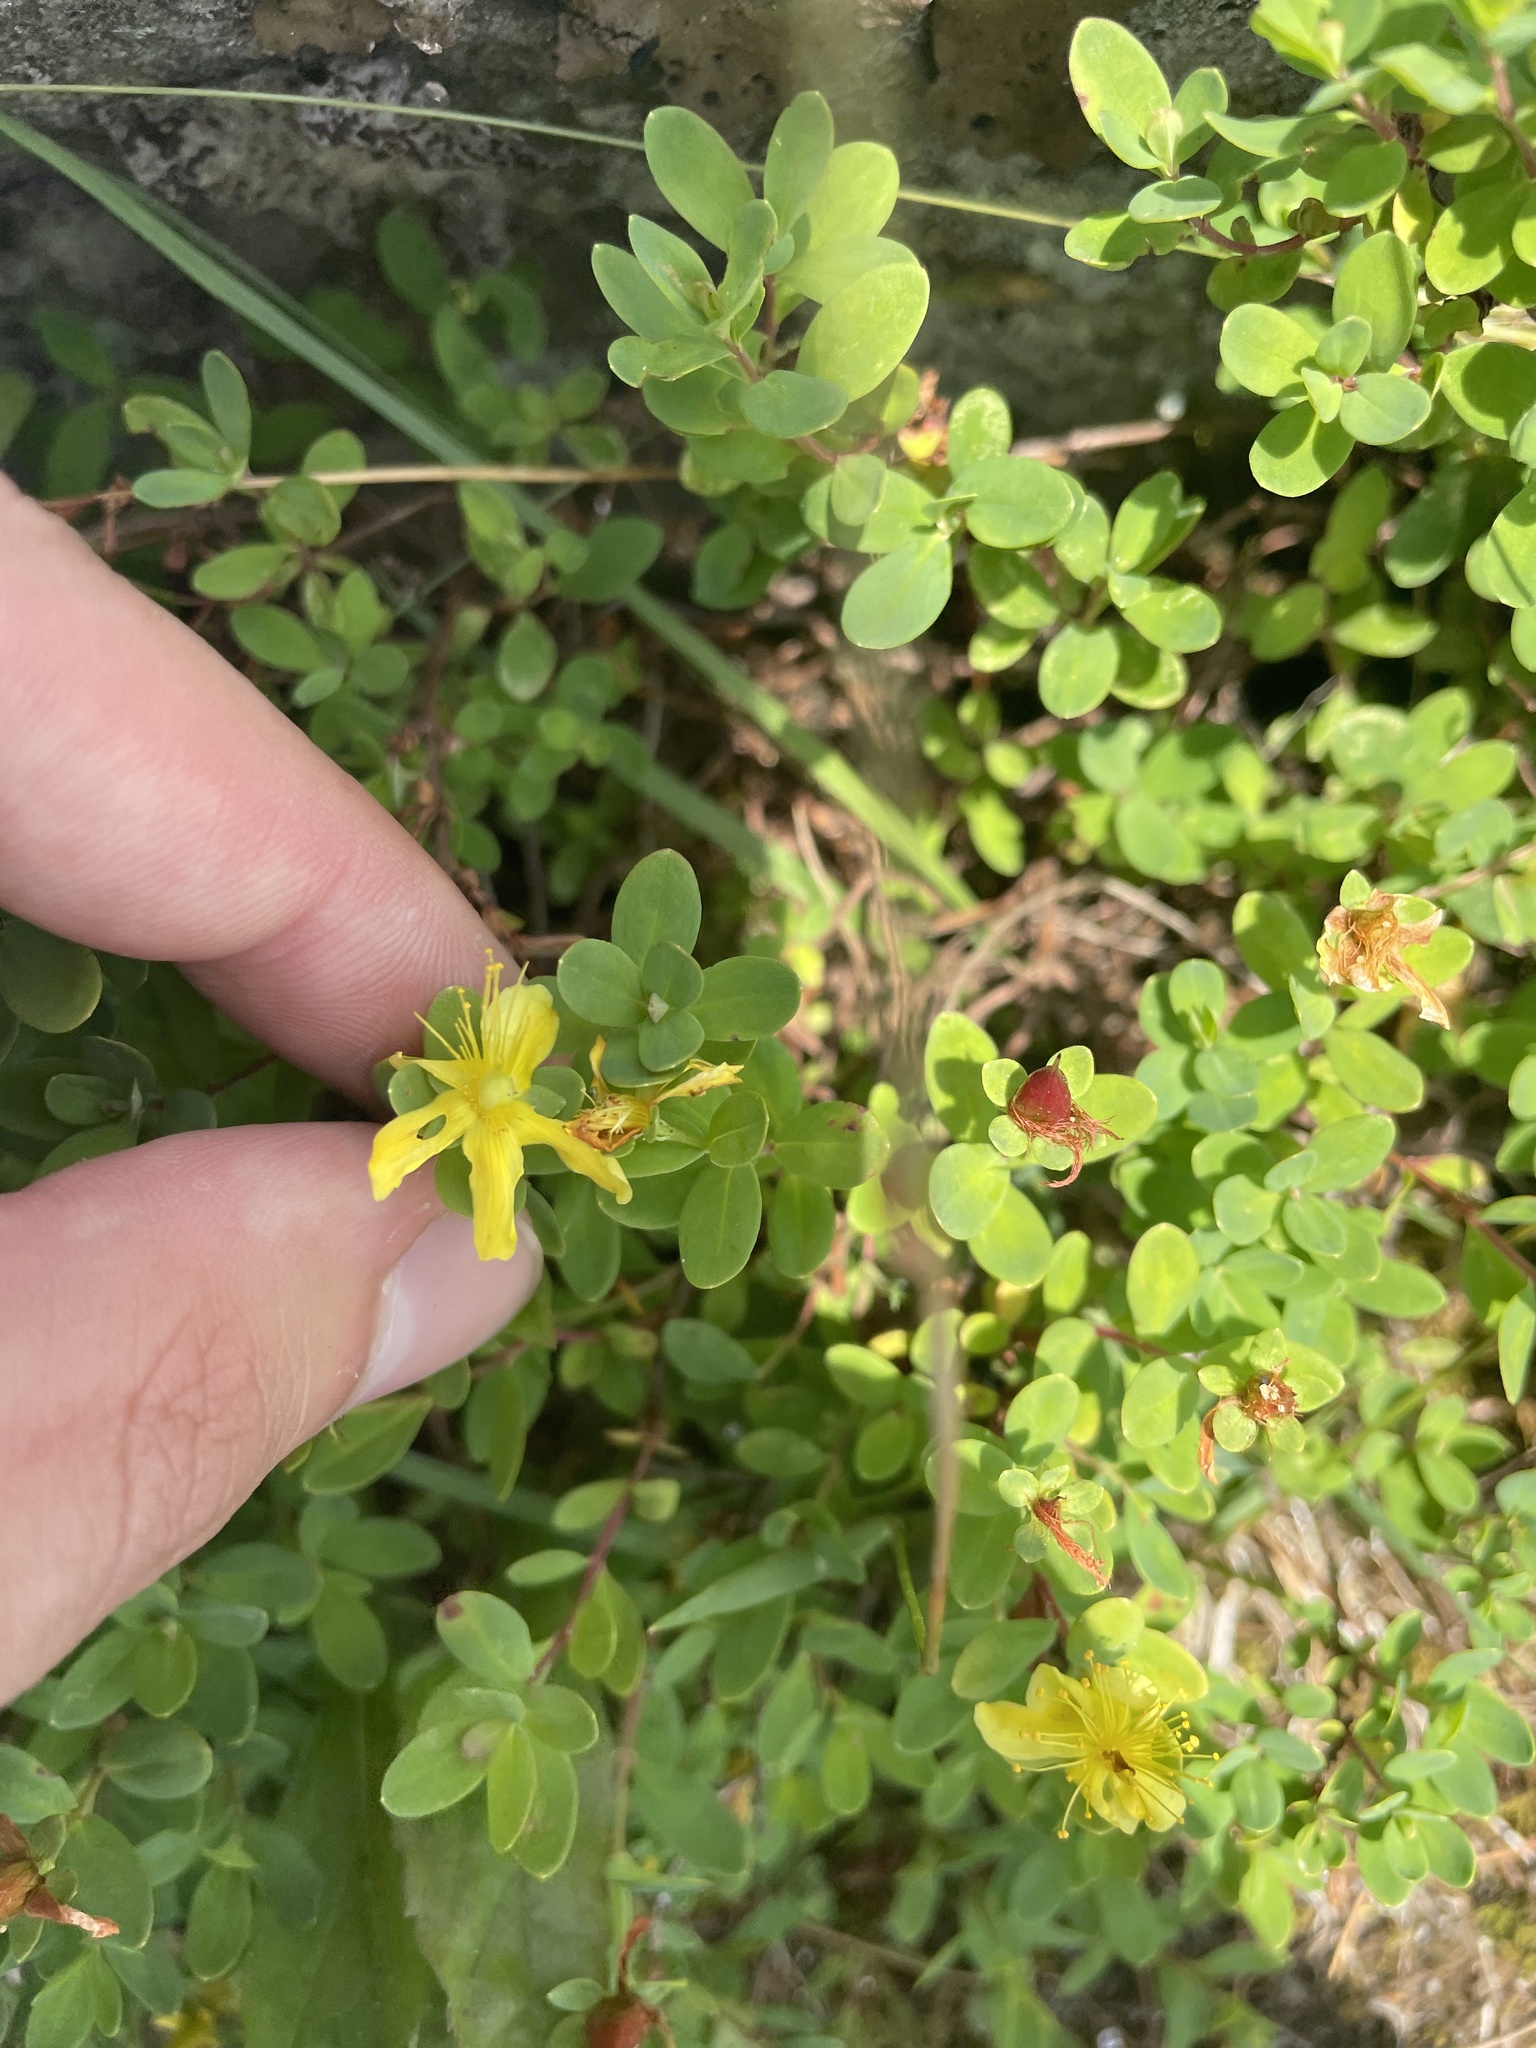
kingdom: Plantae
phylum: Tracheophyta
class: Magnoliopsida
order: Malpighiales
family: Hypericaceae
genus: Hypericum
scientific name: Hypericum buckleyi
